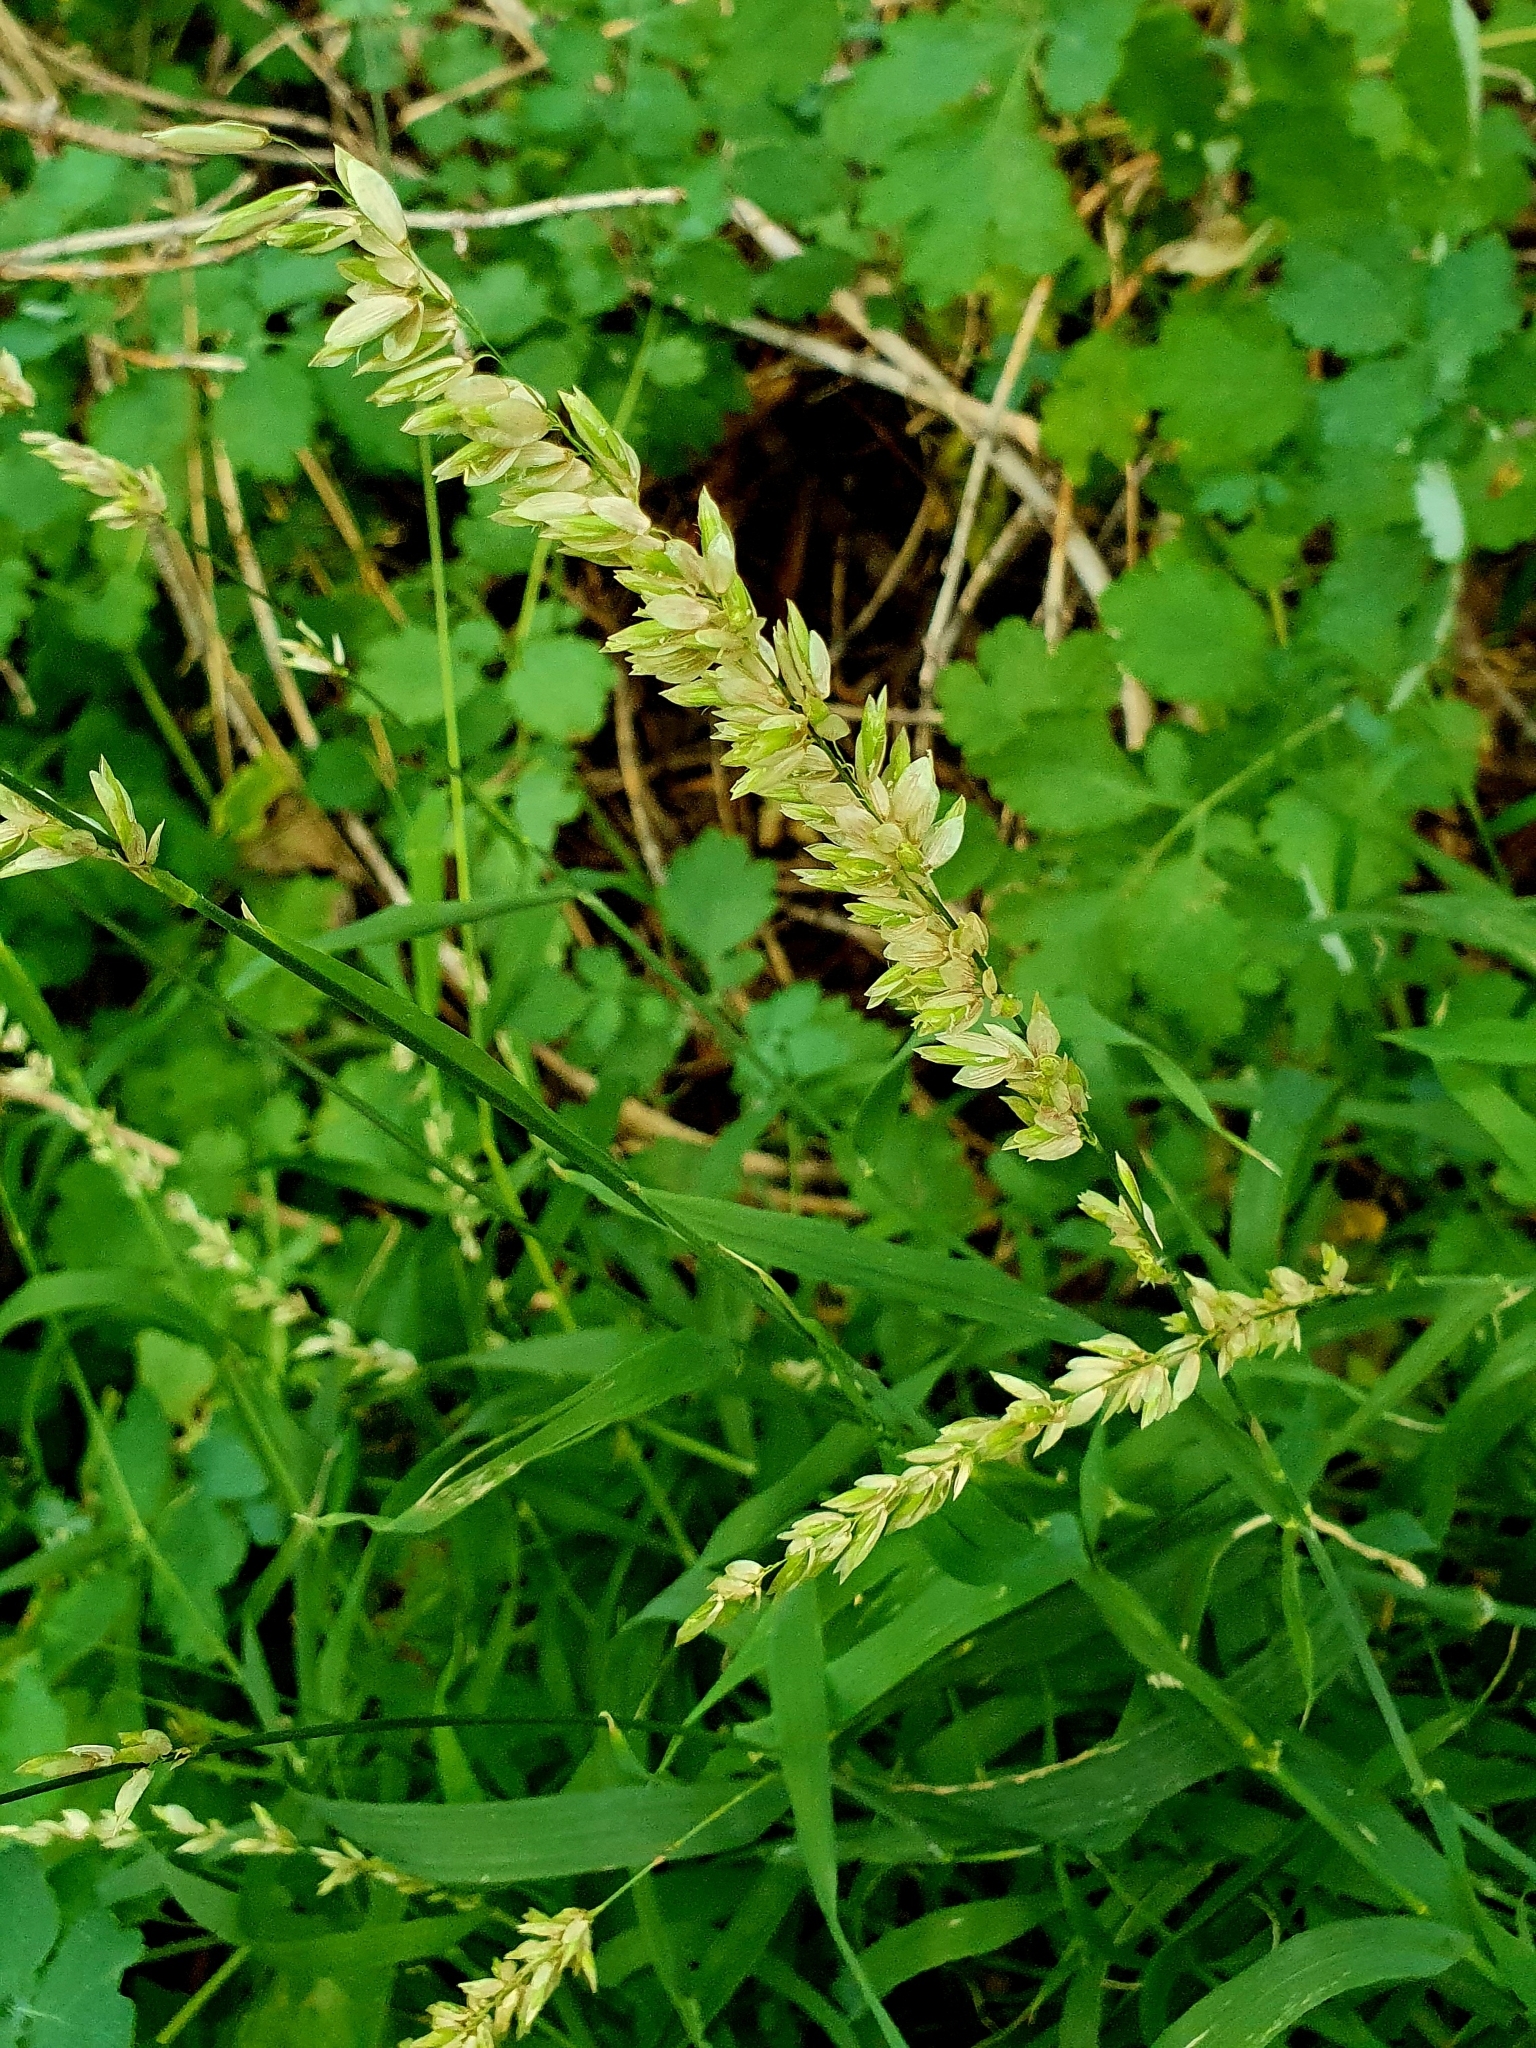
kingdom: Plantae
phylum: Tracheophyta
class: Liliopsida
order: Poales
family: Poaceae
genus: Melica
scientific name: Melica altissima
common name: Siberian melicgrass
